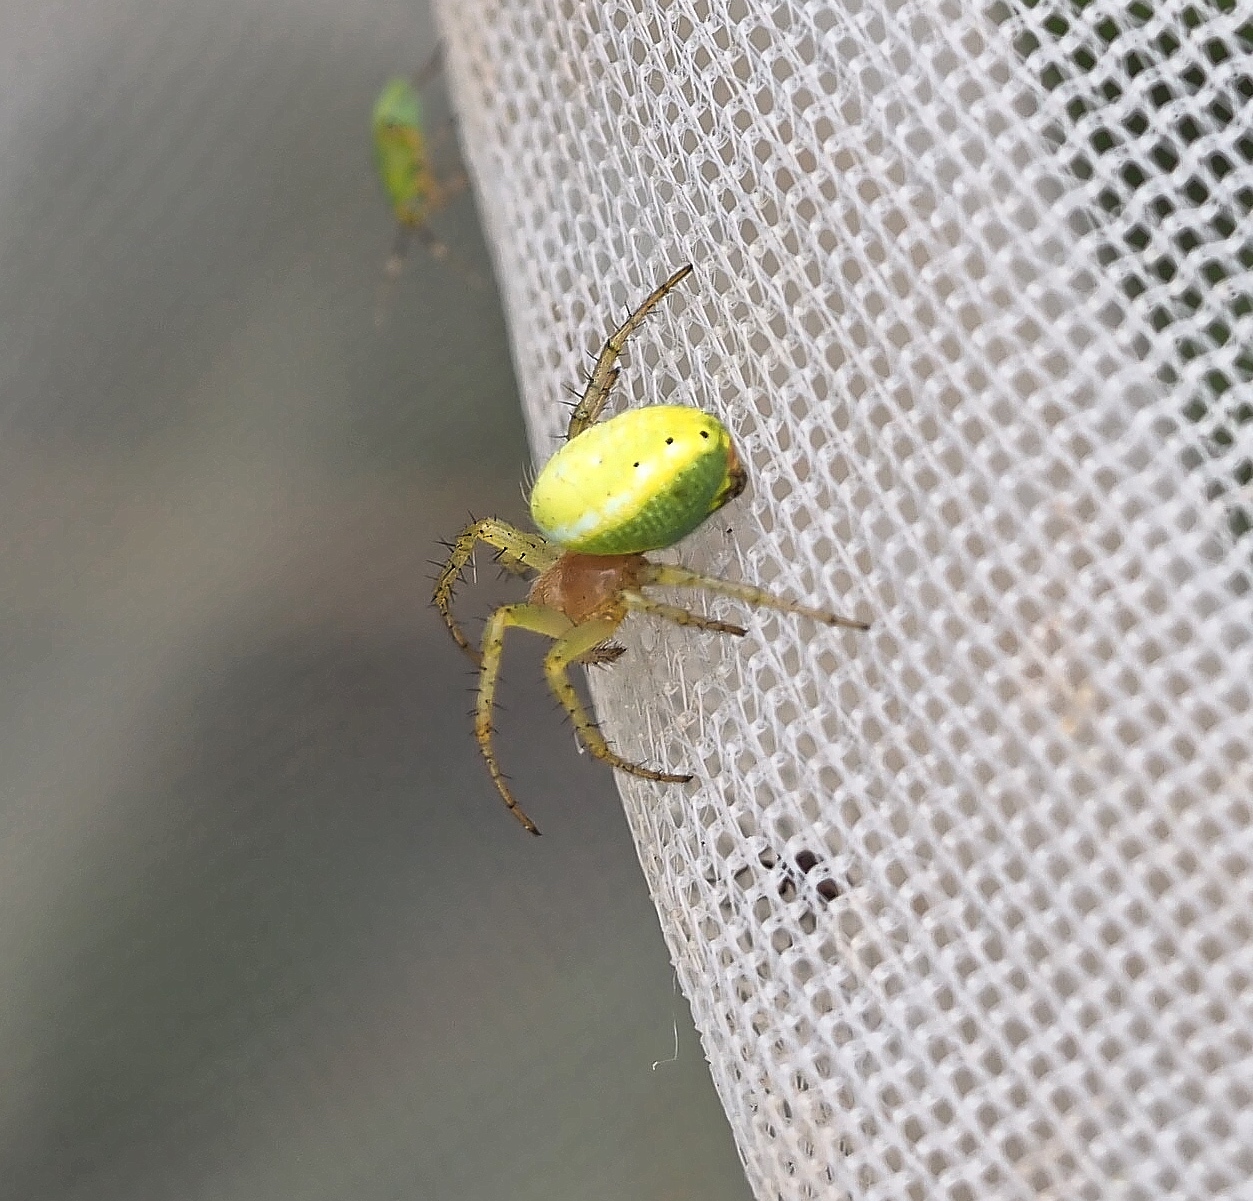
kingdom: Animalia
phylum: Arthropoda
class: Arachnida
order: Araneae
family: Araneidae
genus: Araniella
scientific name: Araniella
